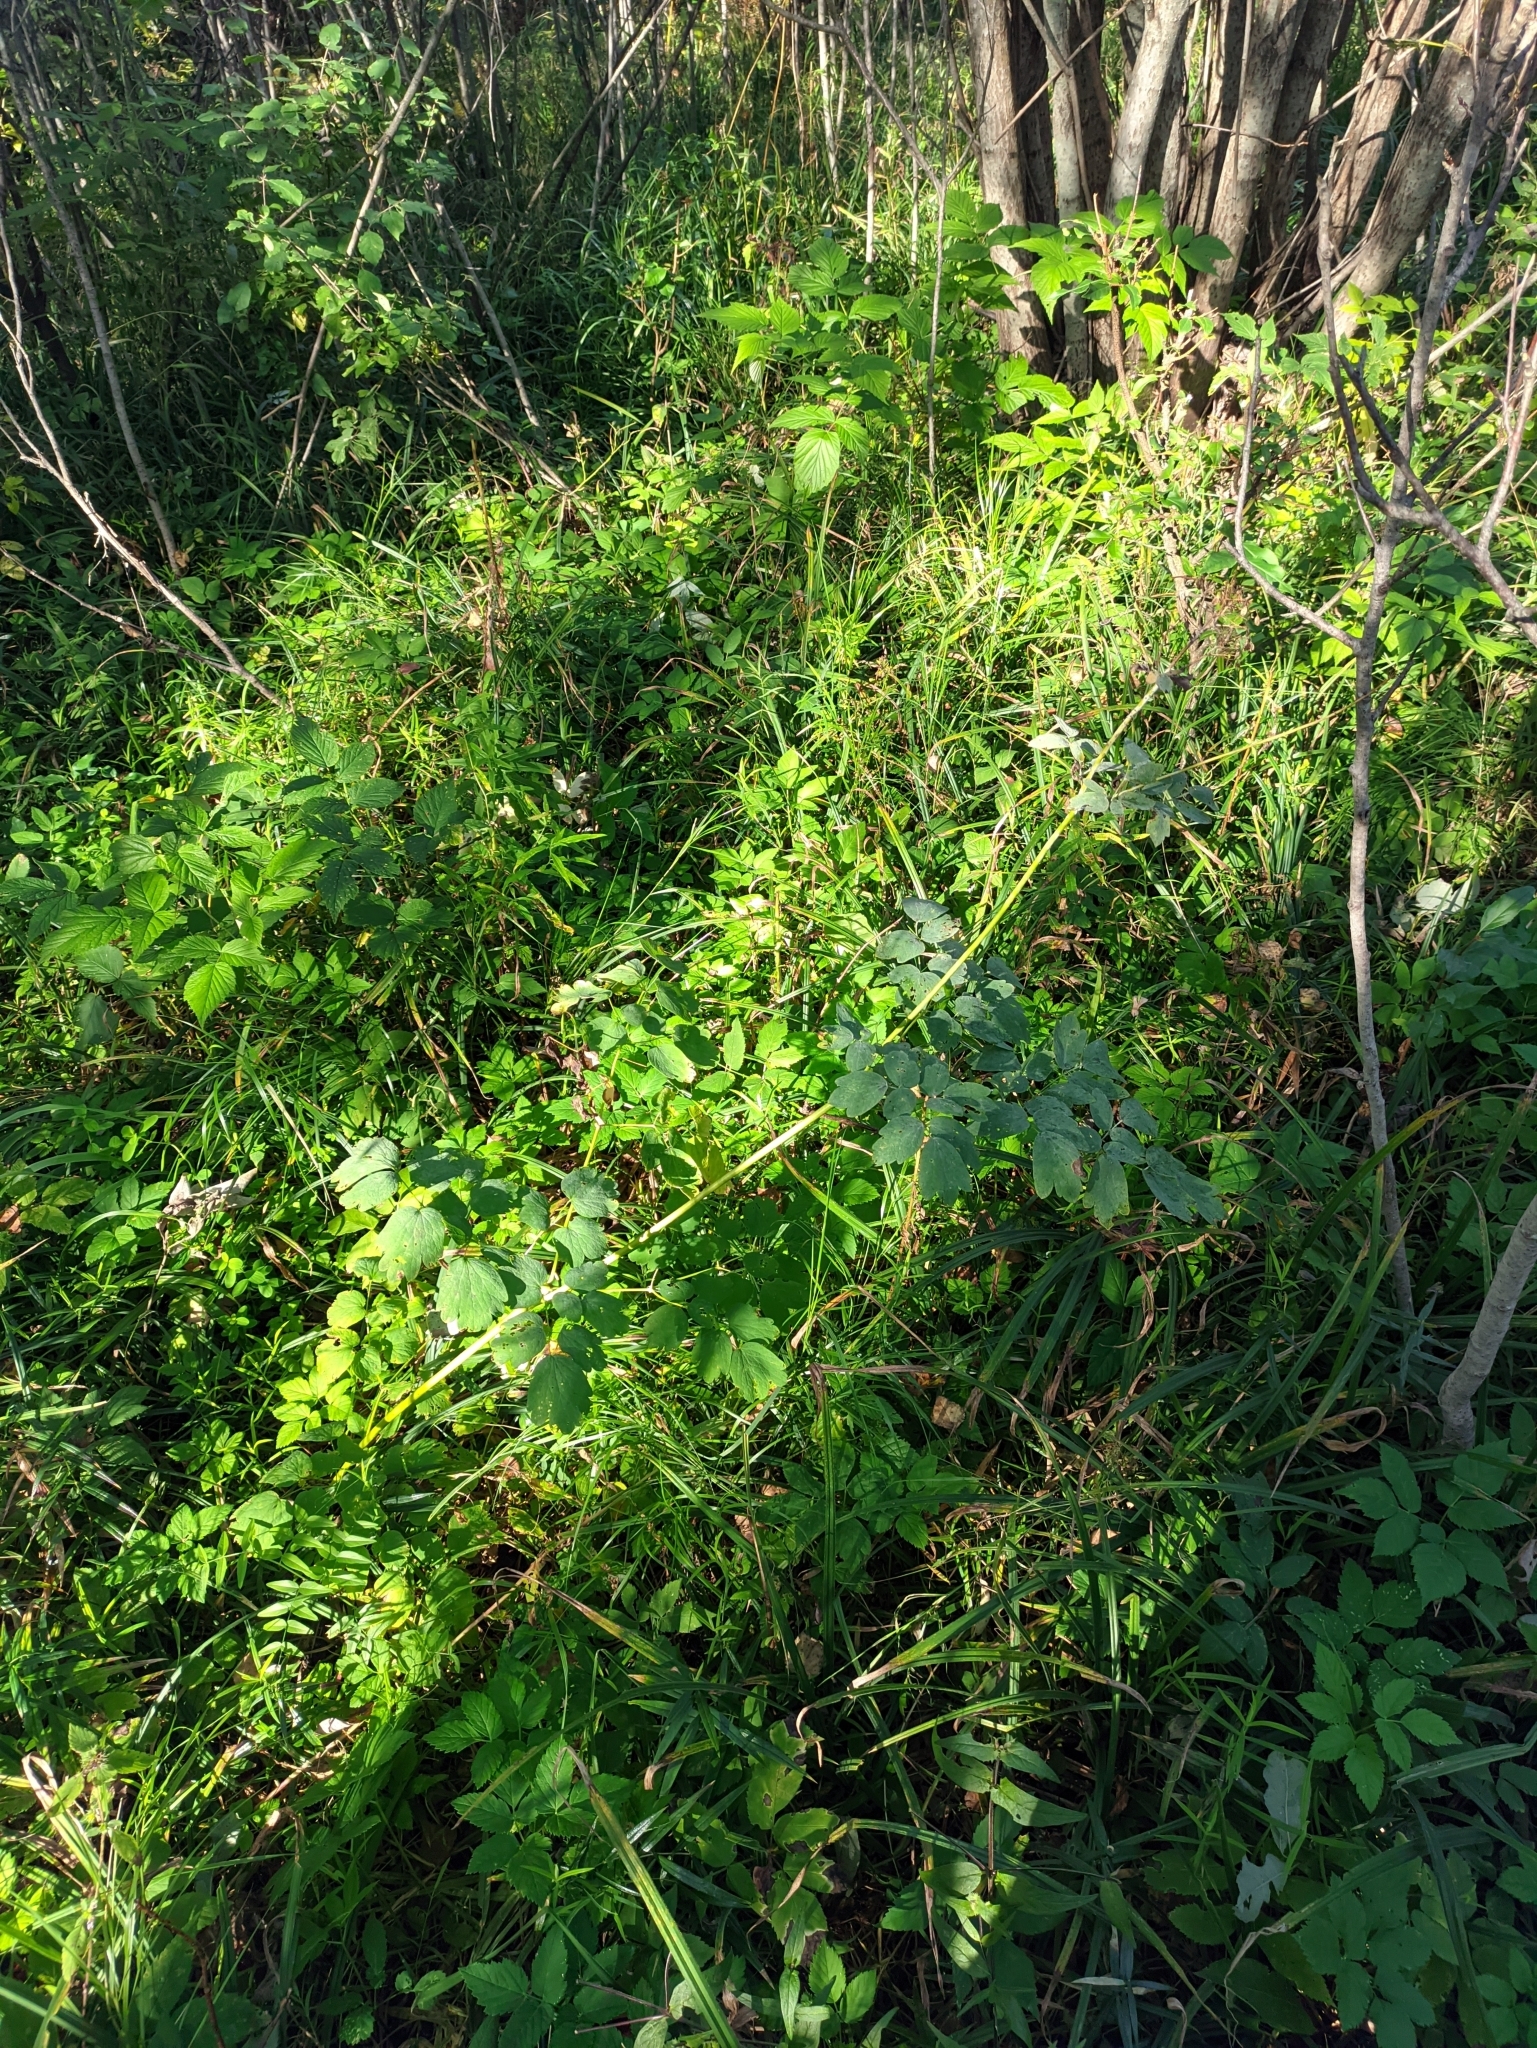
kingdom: Plantae
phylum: Tracheophyta
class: Magnoliopsida
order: Ranunculales
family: Ranunculaceae
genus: Thalictrum
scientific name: Thalictrum aquilegiifolium
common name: French meadow-rue
